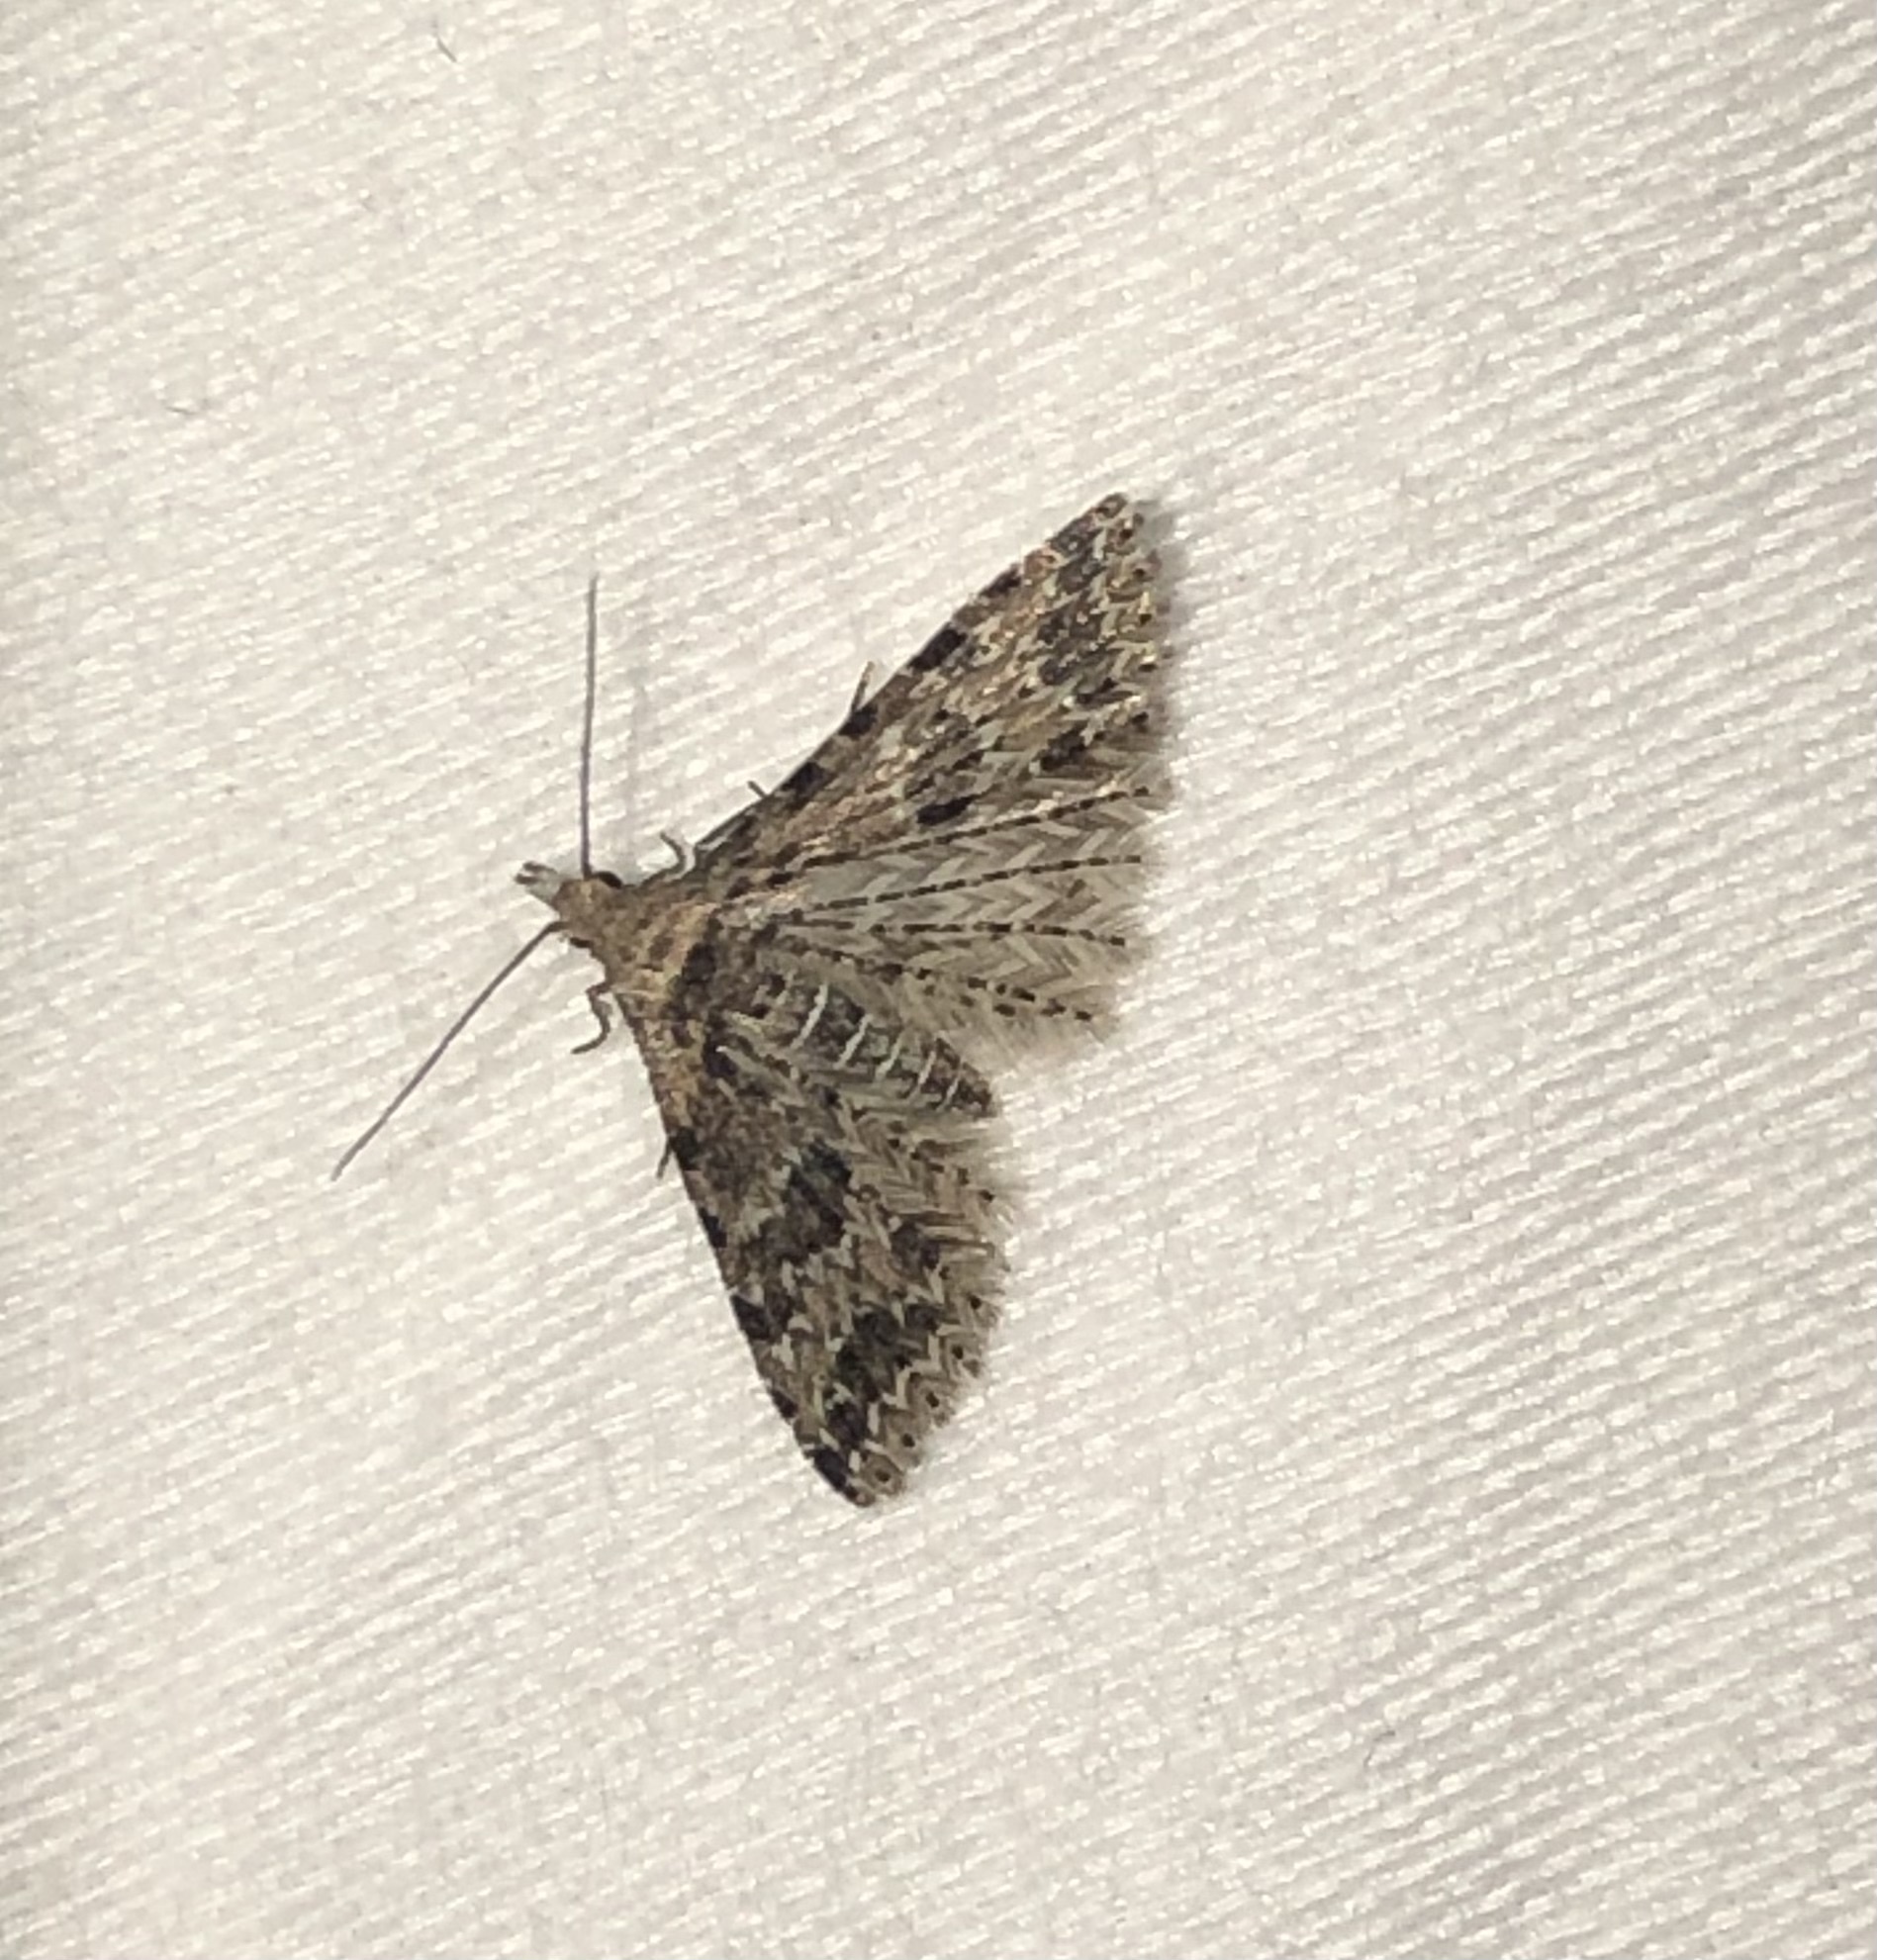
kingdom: Animalia
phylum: Arthropoda
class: Insecta
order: Lepidoptera
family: Alucitidae
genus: Alucita
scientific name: Alucita montana
